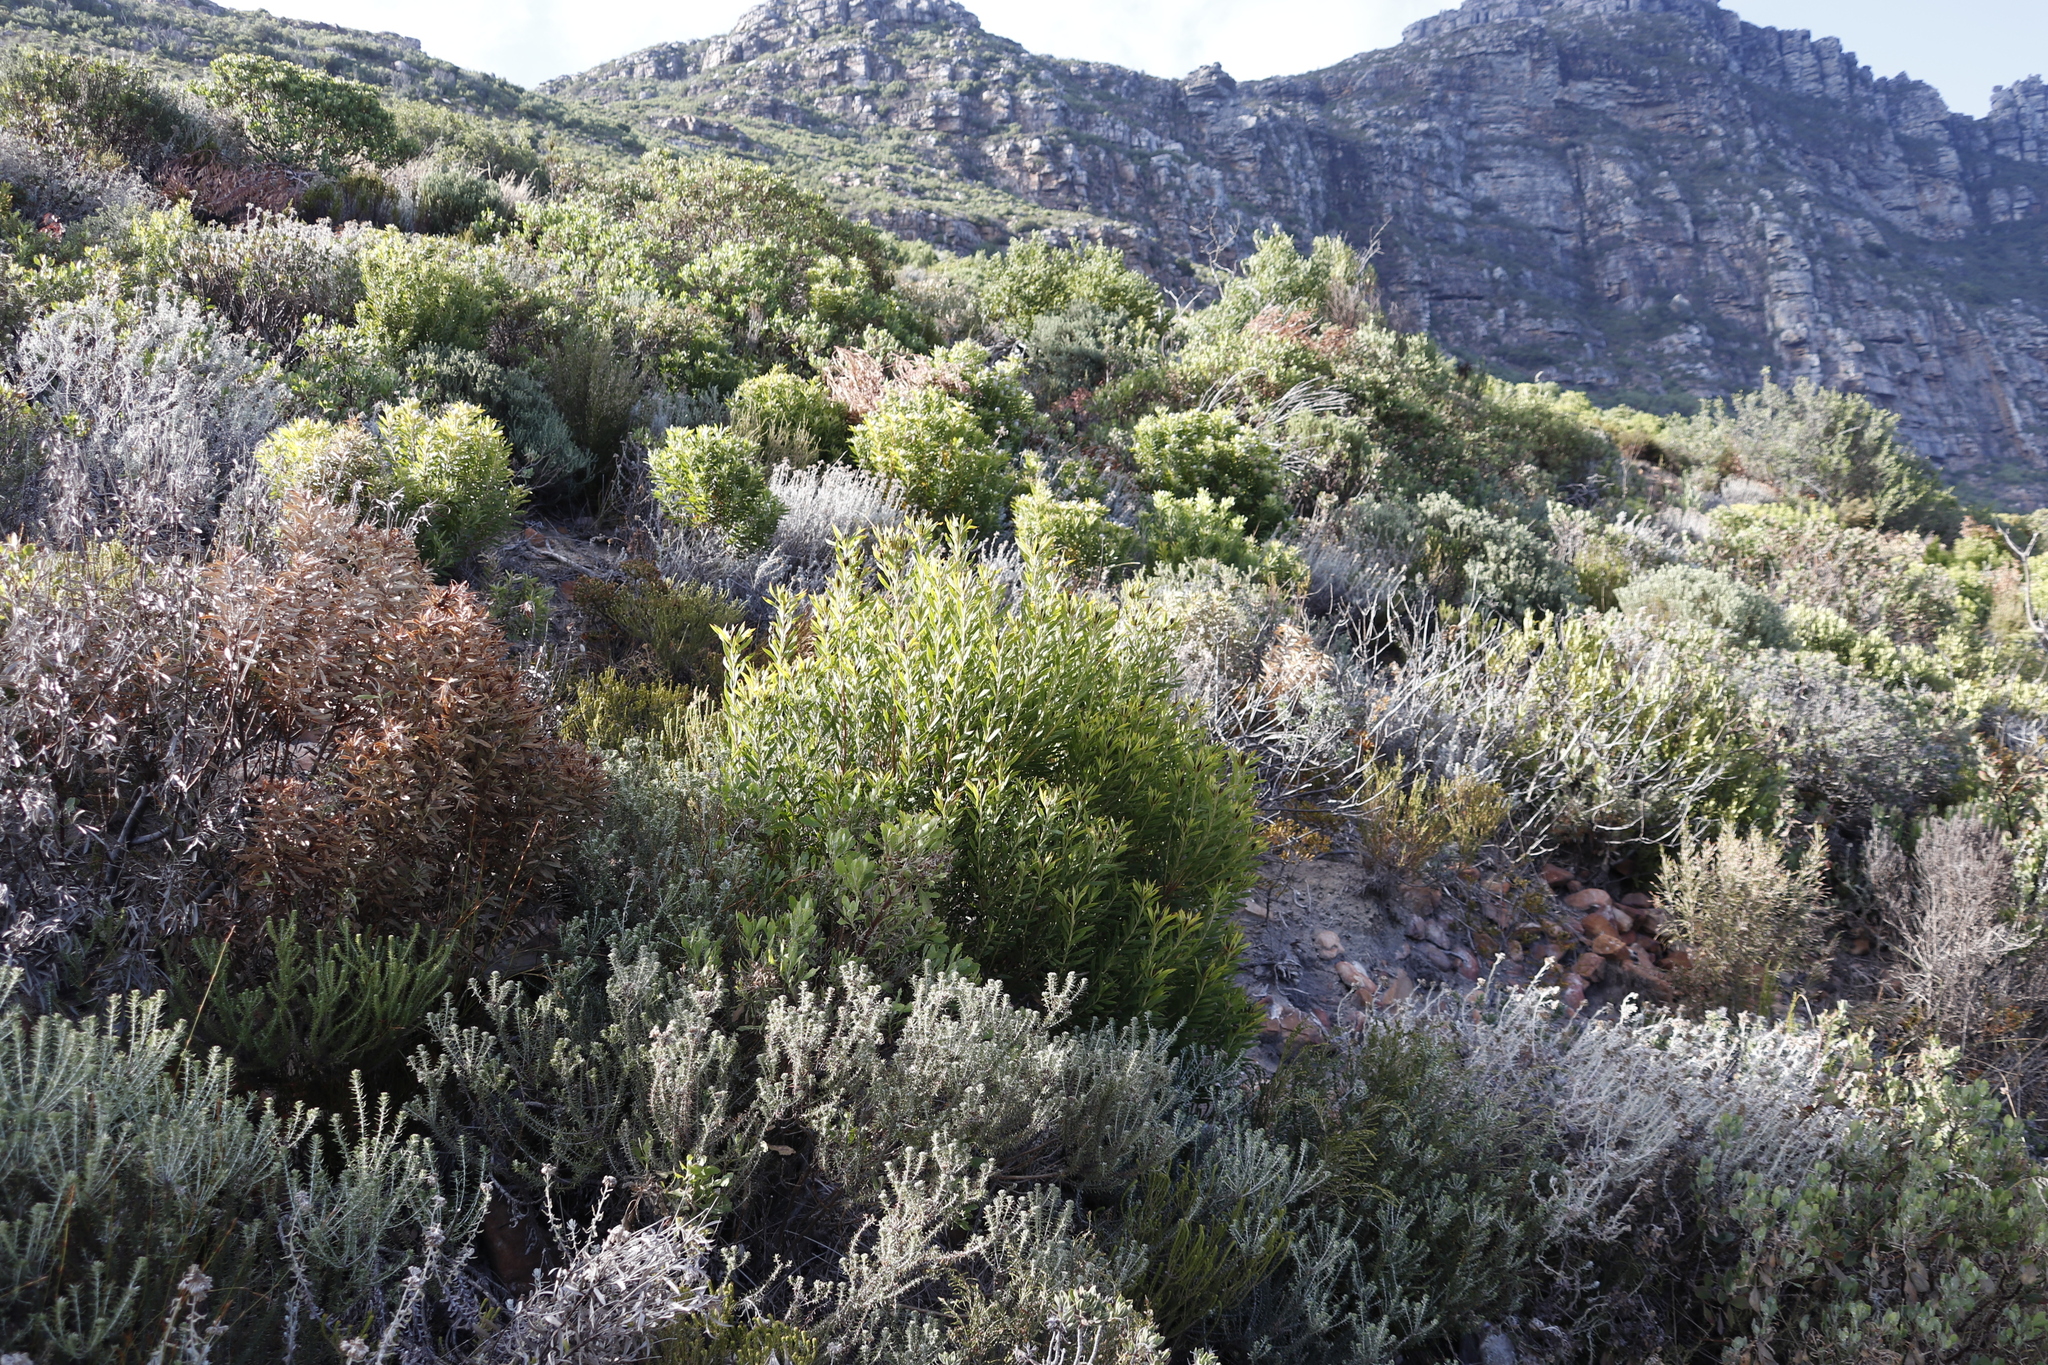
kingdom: Plantae
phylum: Tracheophyta
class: Magnoliopsida
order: Proteales
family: Proteaceae
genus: Leucadendron
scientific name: Leucadendron coniferum
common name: Dune conebush
